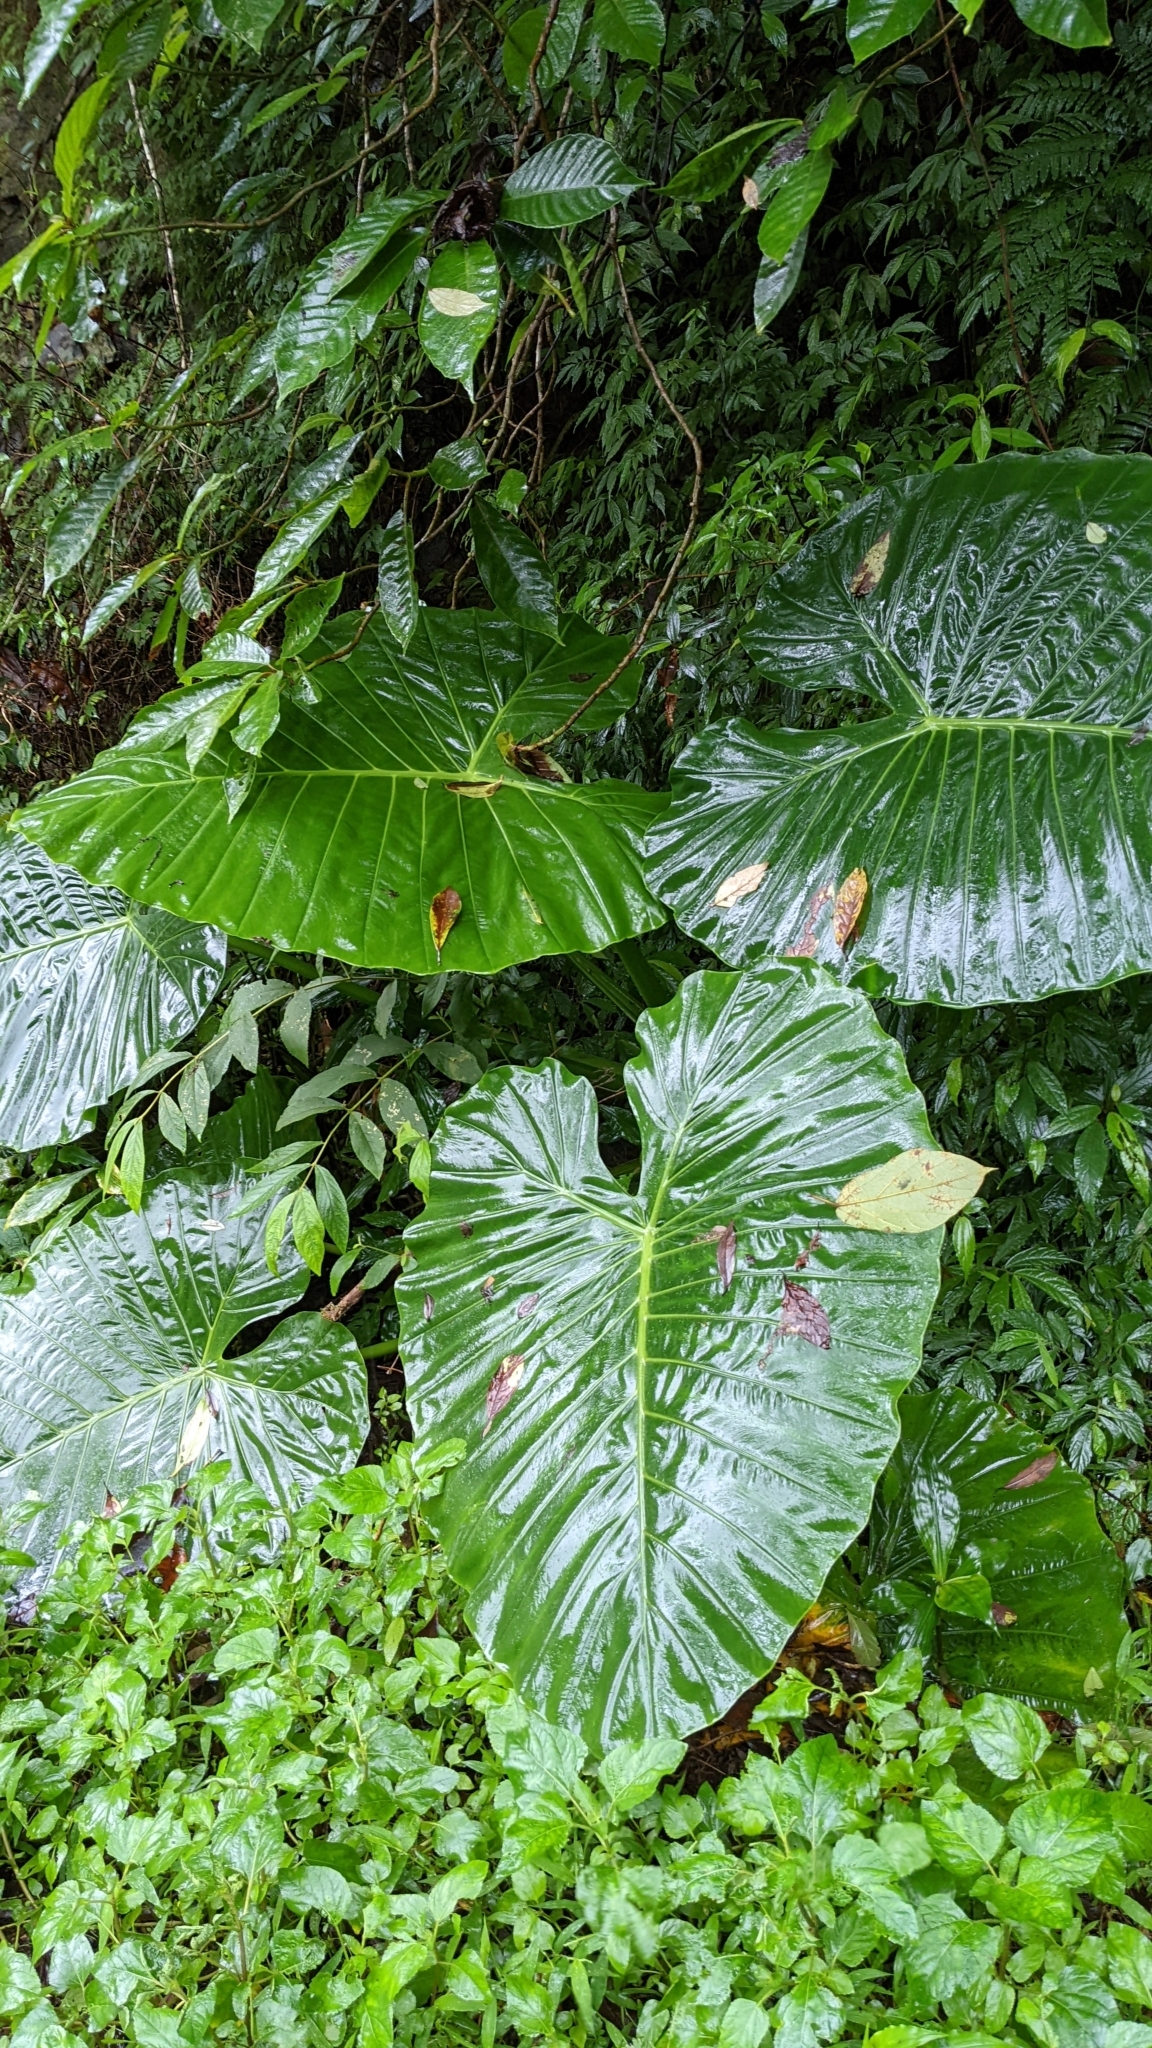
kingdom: Plantae
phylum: Tracheophyta
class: Liliopsida
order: Alismatales
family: Araceae
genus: Alocasia
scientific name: Alocasia odora
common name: Asian taro
